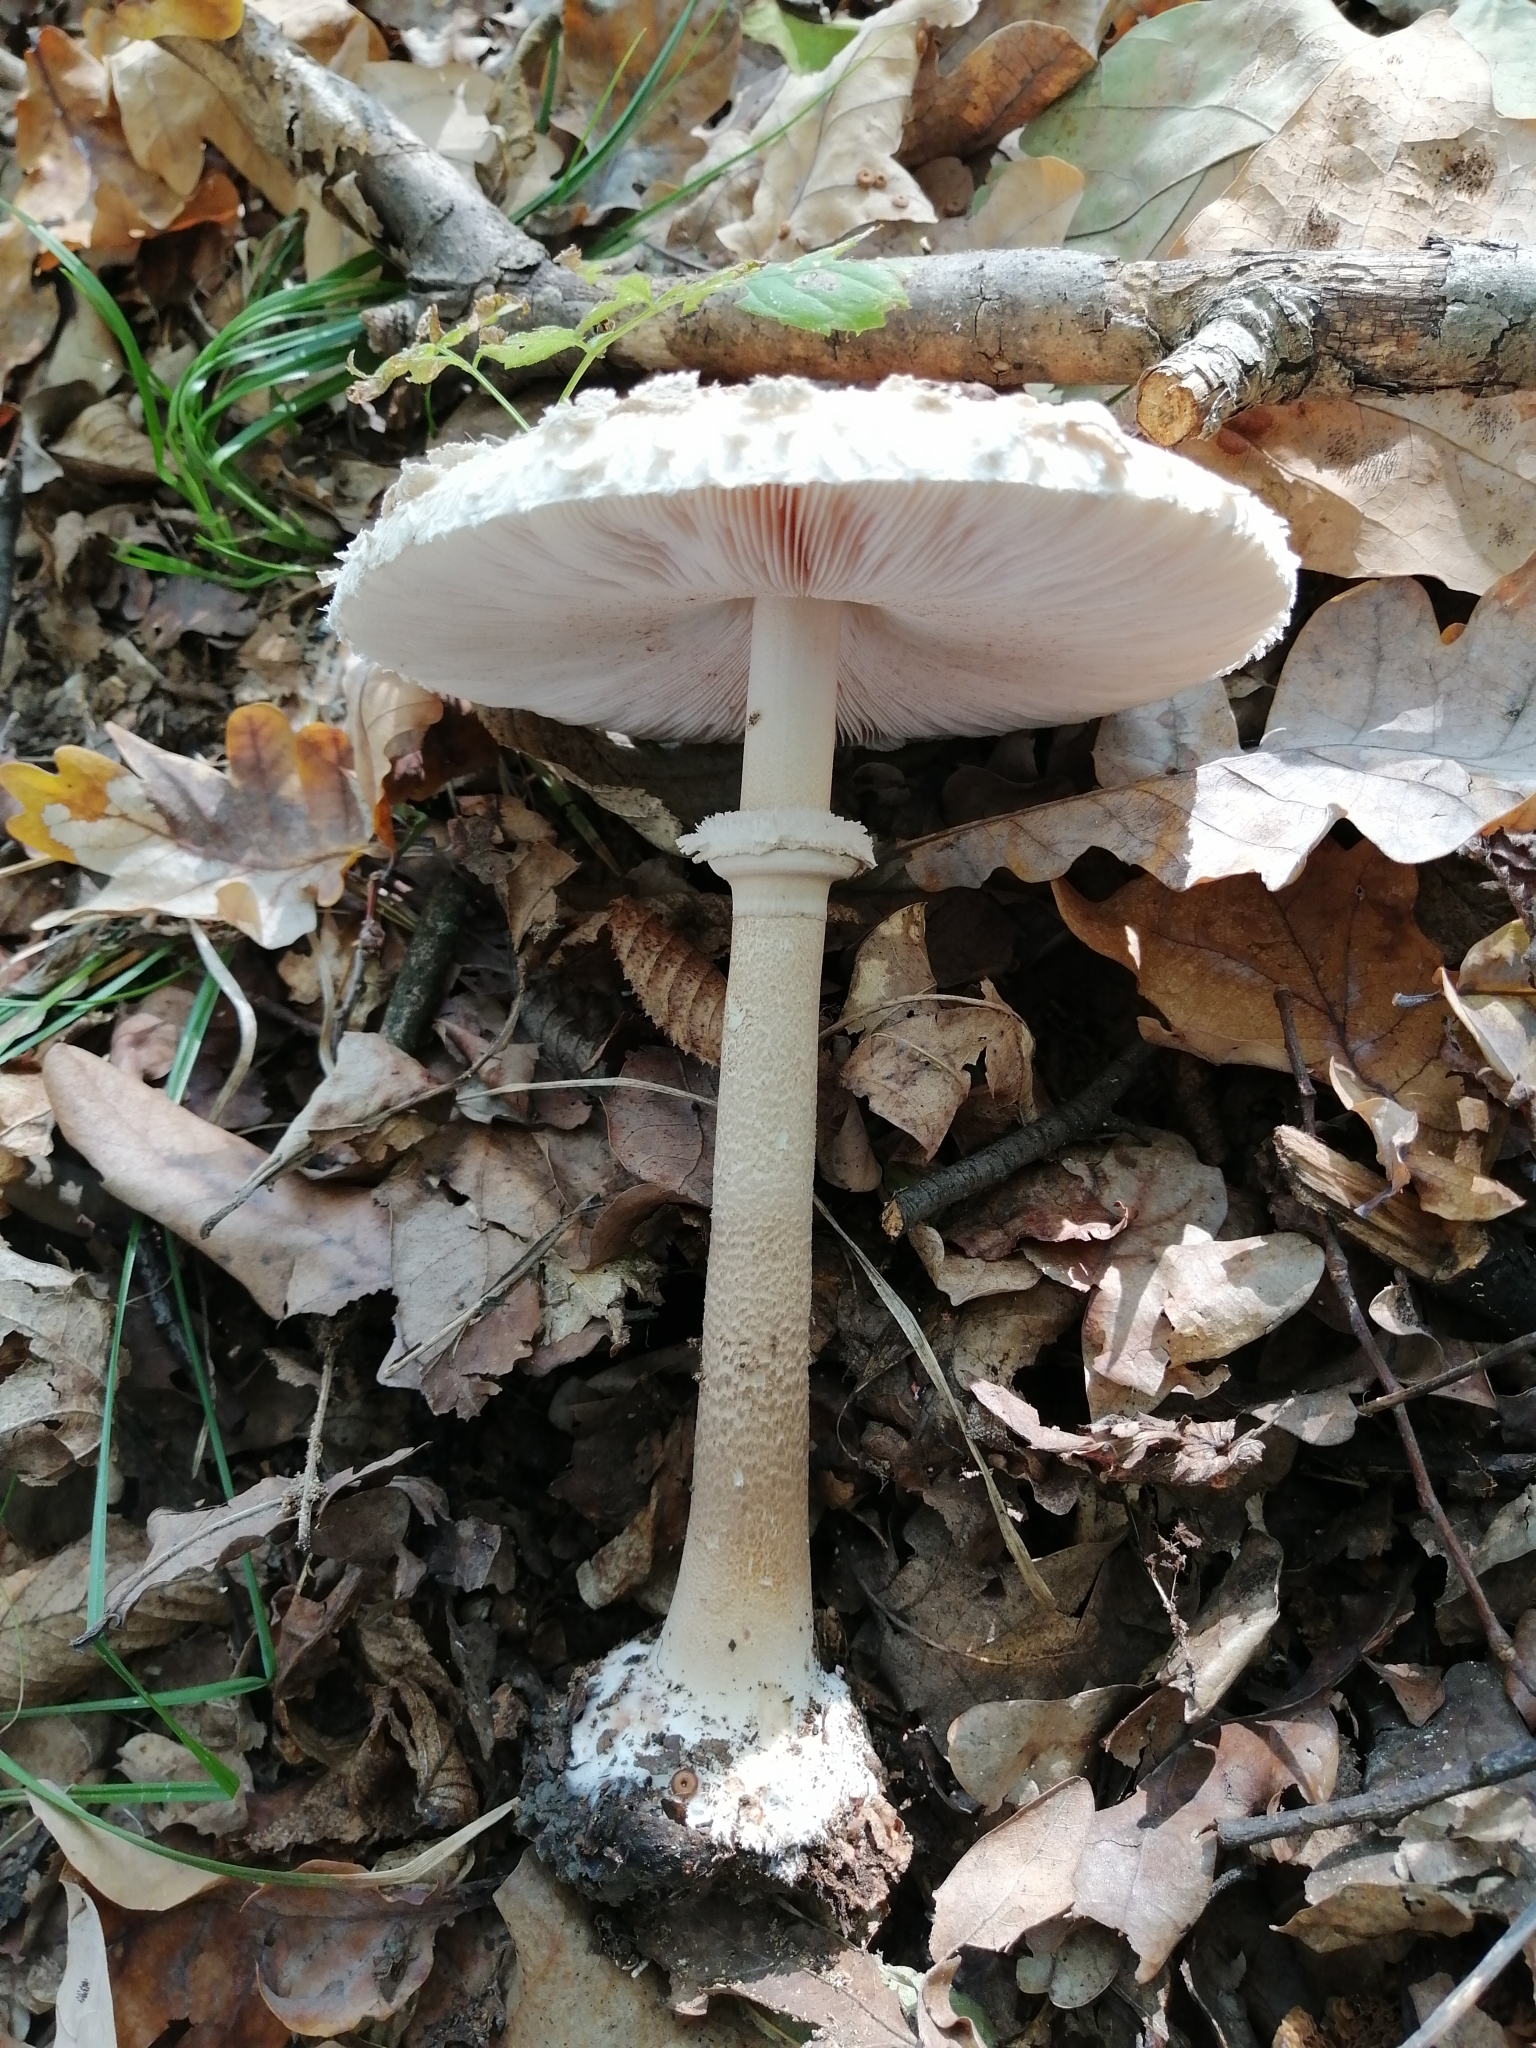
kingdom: Fungi
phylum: Basidiomycota
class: Agaricomycetes
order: Agaricales
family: Agaricaceae
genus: Macrolepiota
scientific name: Macrolepiota procera
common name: Parasol
